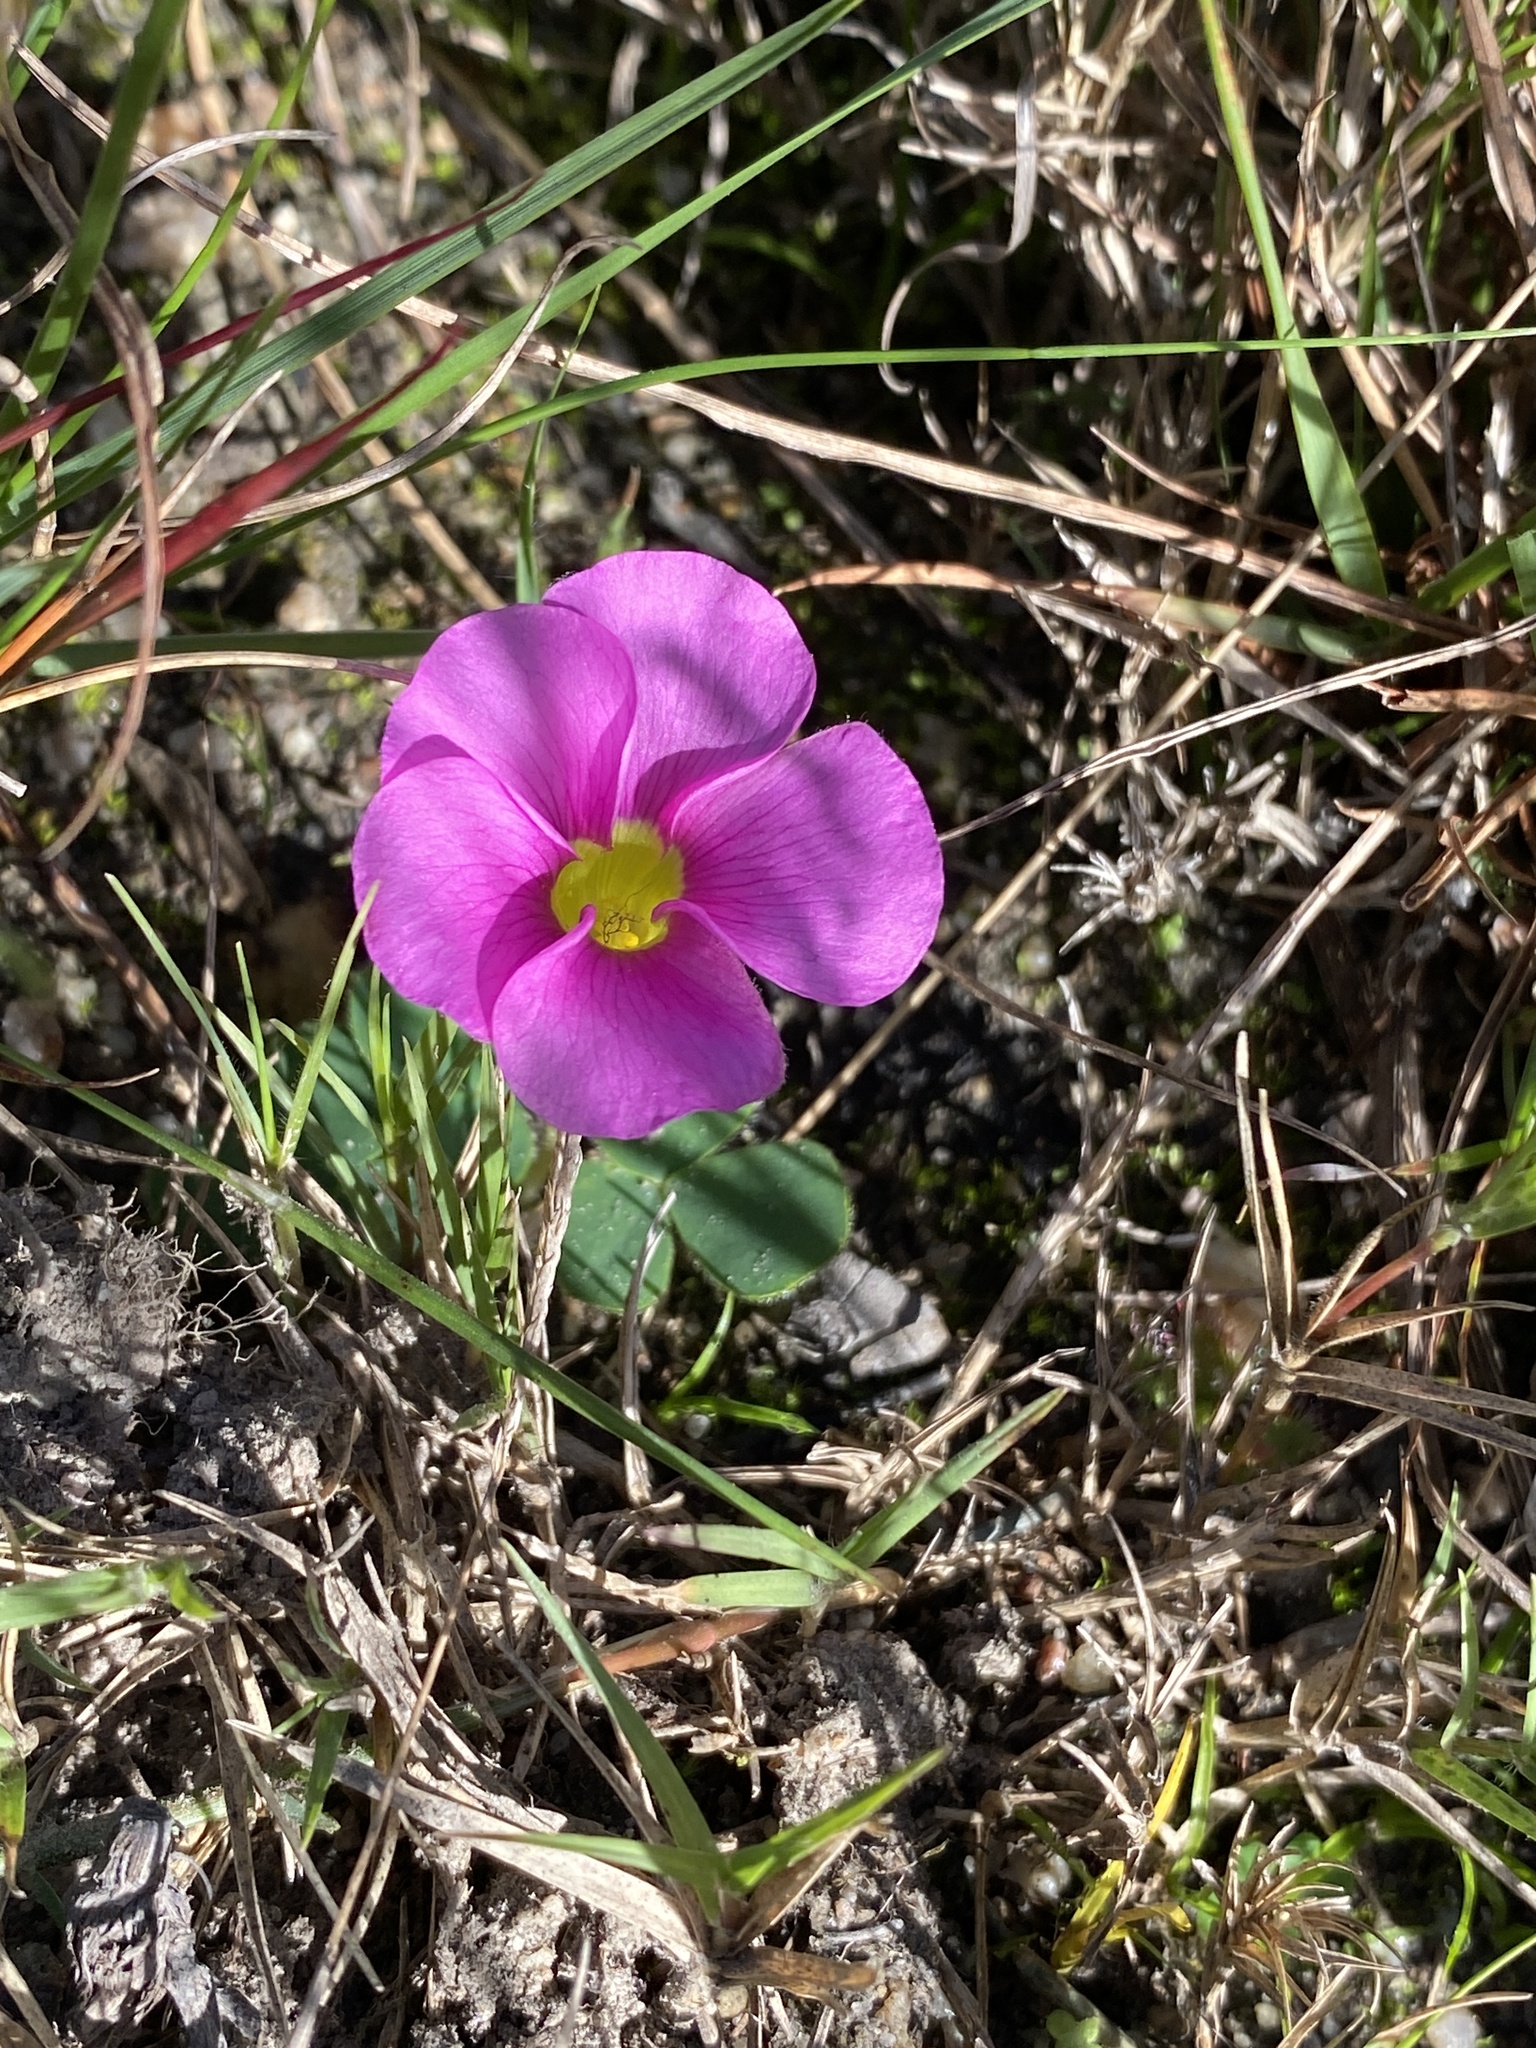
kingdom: Plantae
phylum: Tracheophyta
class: Magnoliopsida
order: Oxalidales
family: Oxalidaceae
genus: Oxalis
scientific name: Oxalis purpurea
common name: Purple woodsorrel
